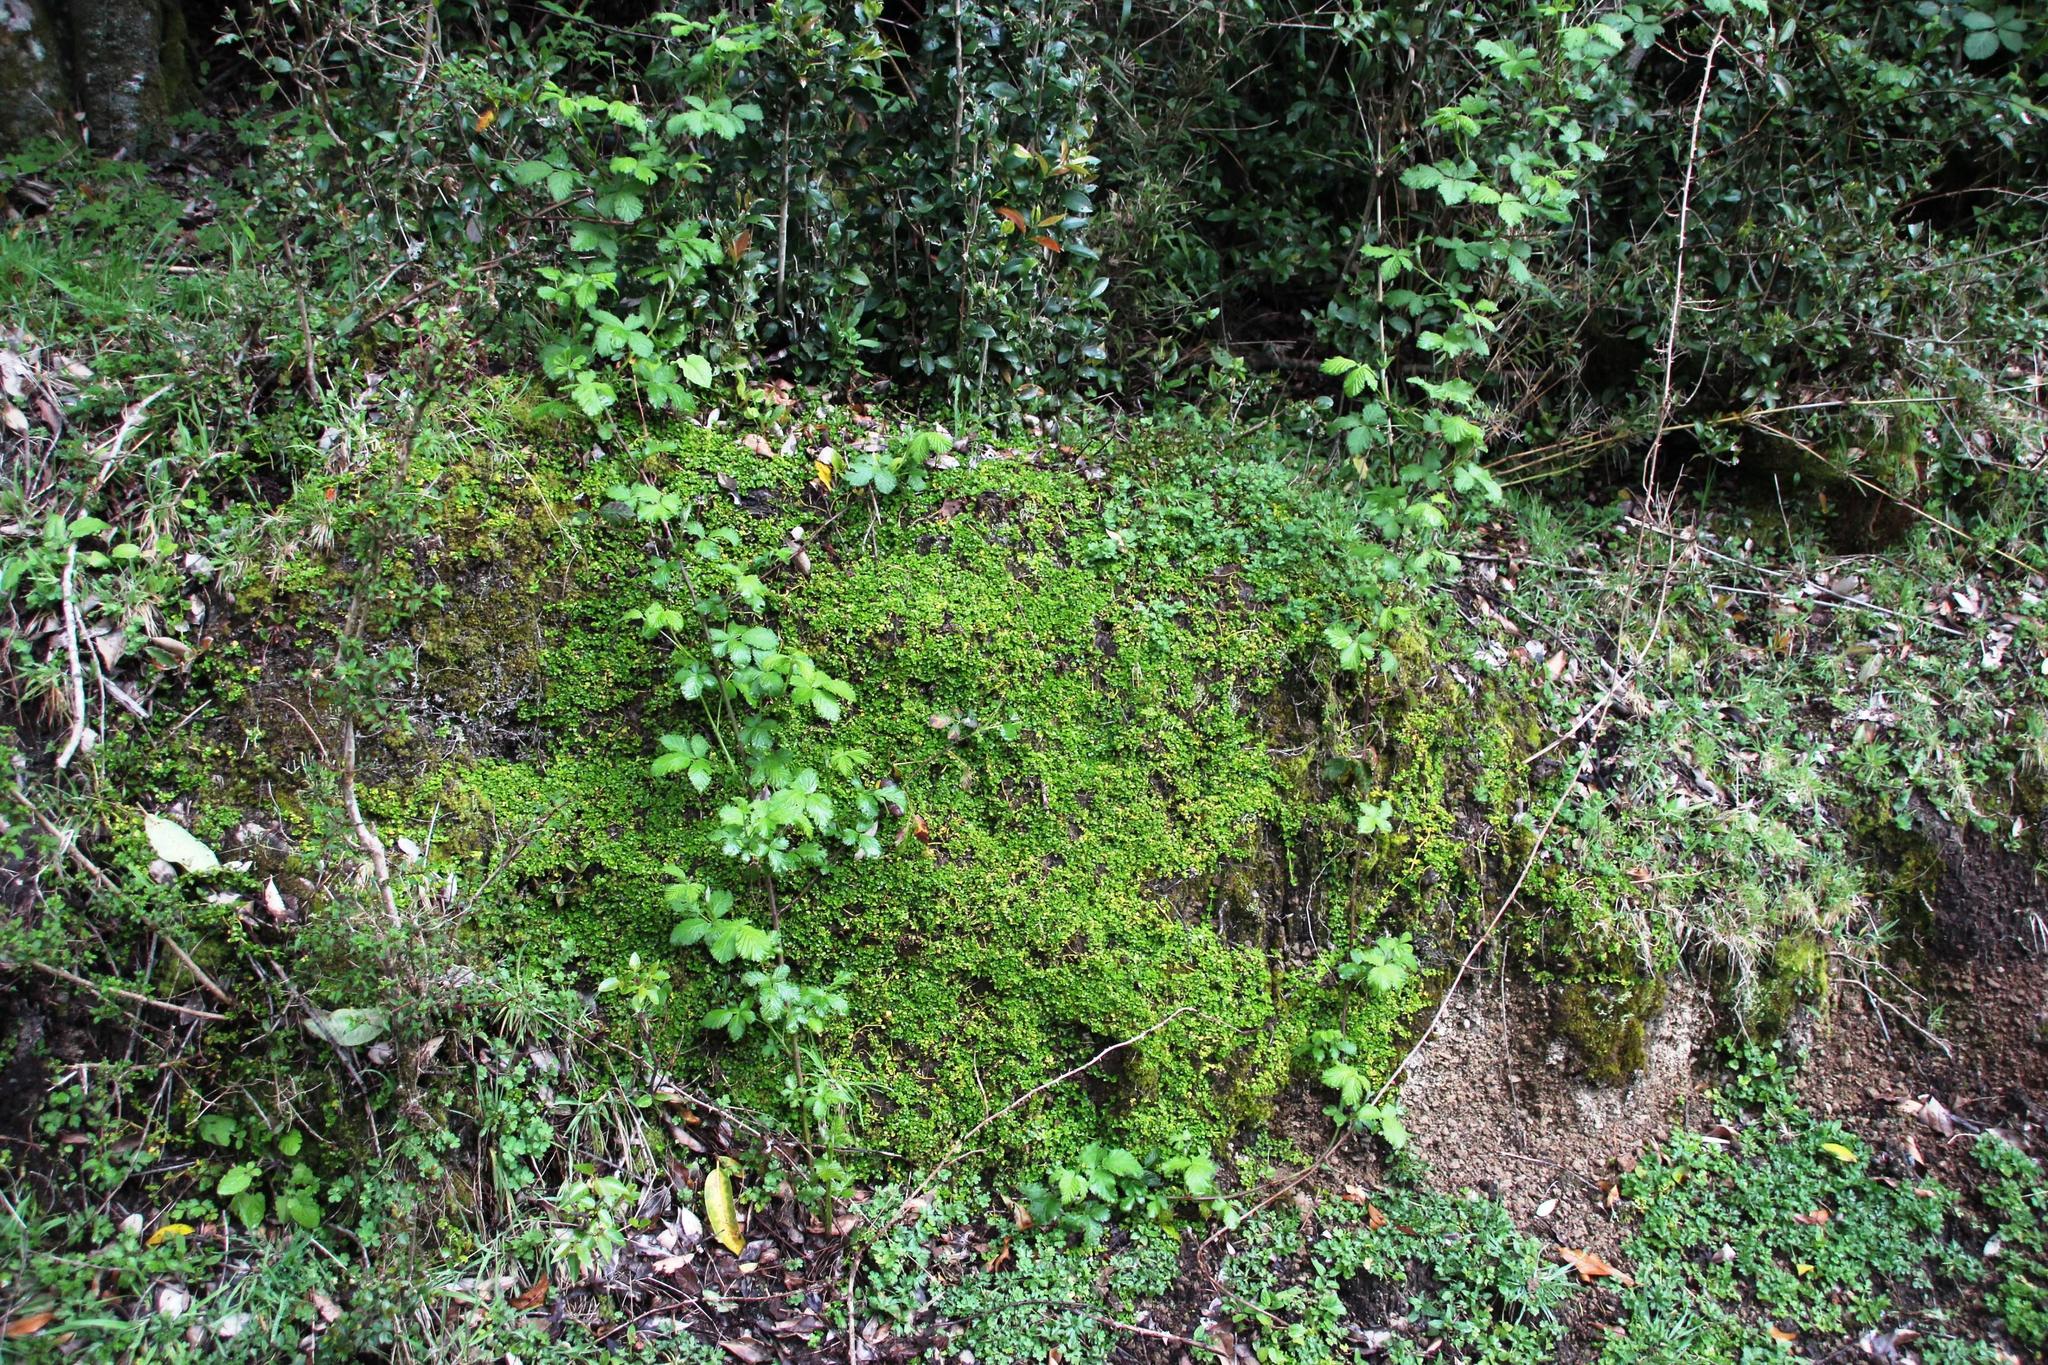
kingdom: Plantae
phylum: Tracheophyta
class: Magnoliopsida
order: Gentianales
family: Rubiaceae
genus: Nertera
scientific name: Nertera granadensis
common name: Beadplant
